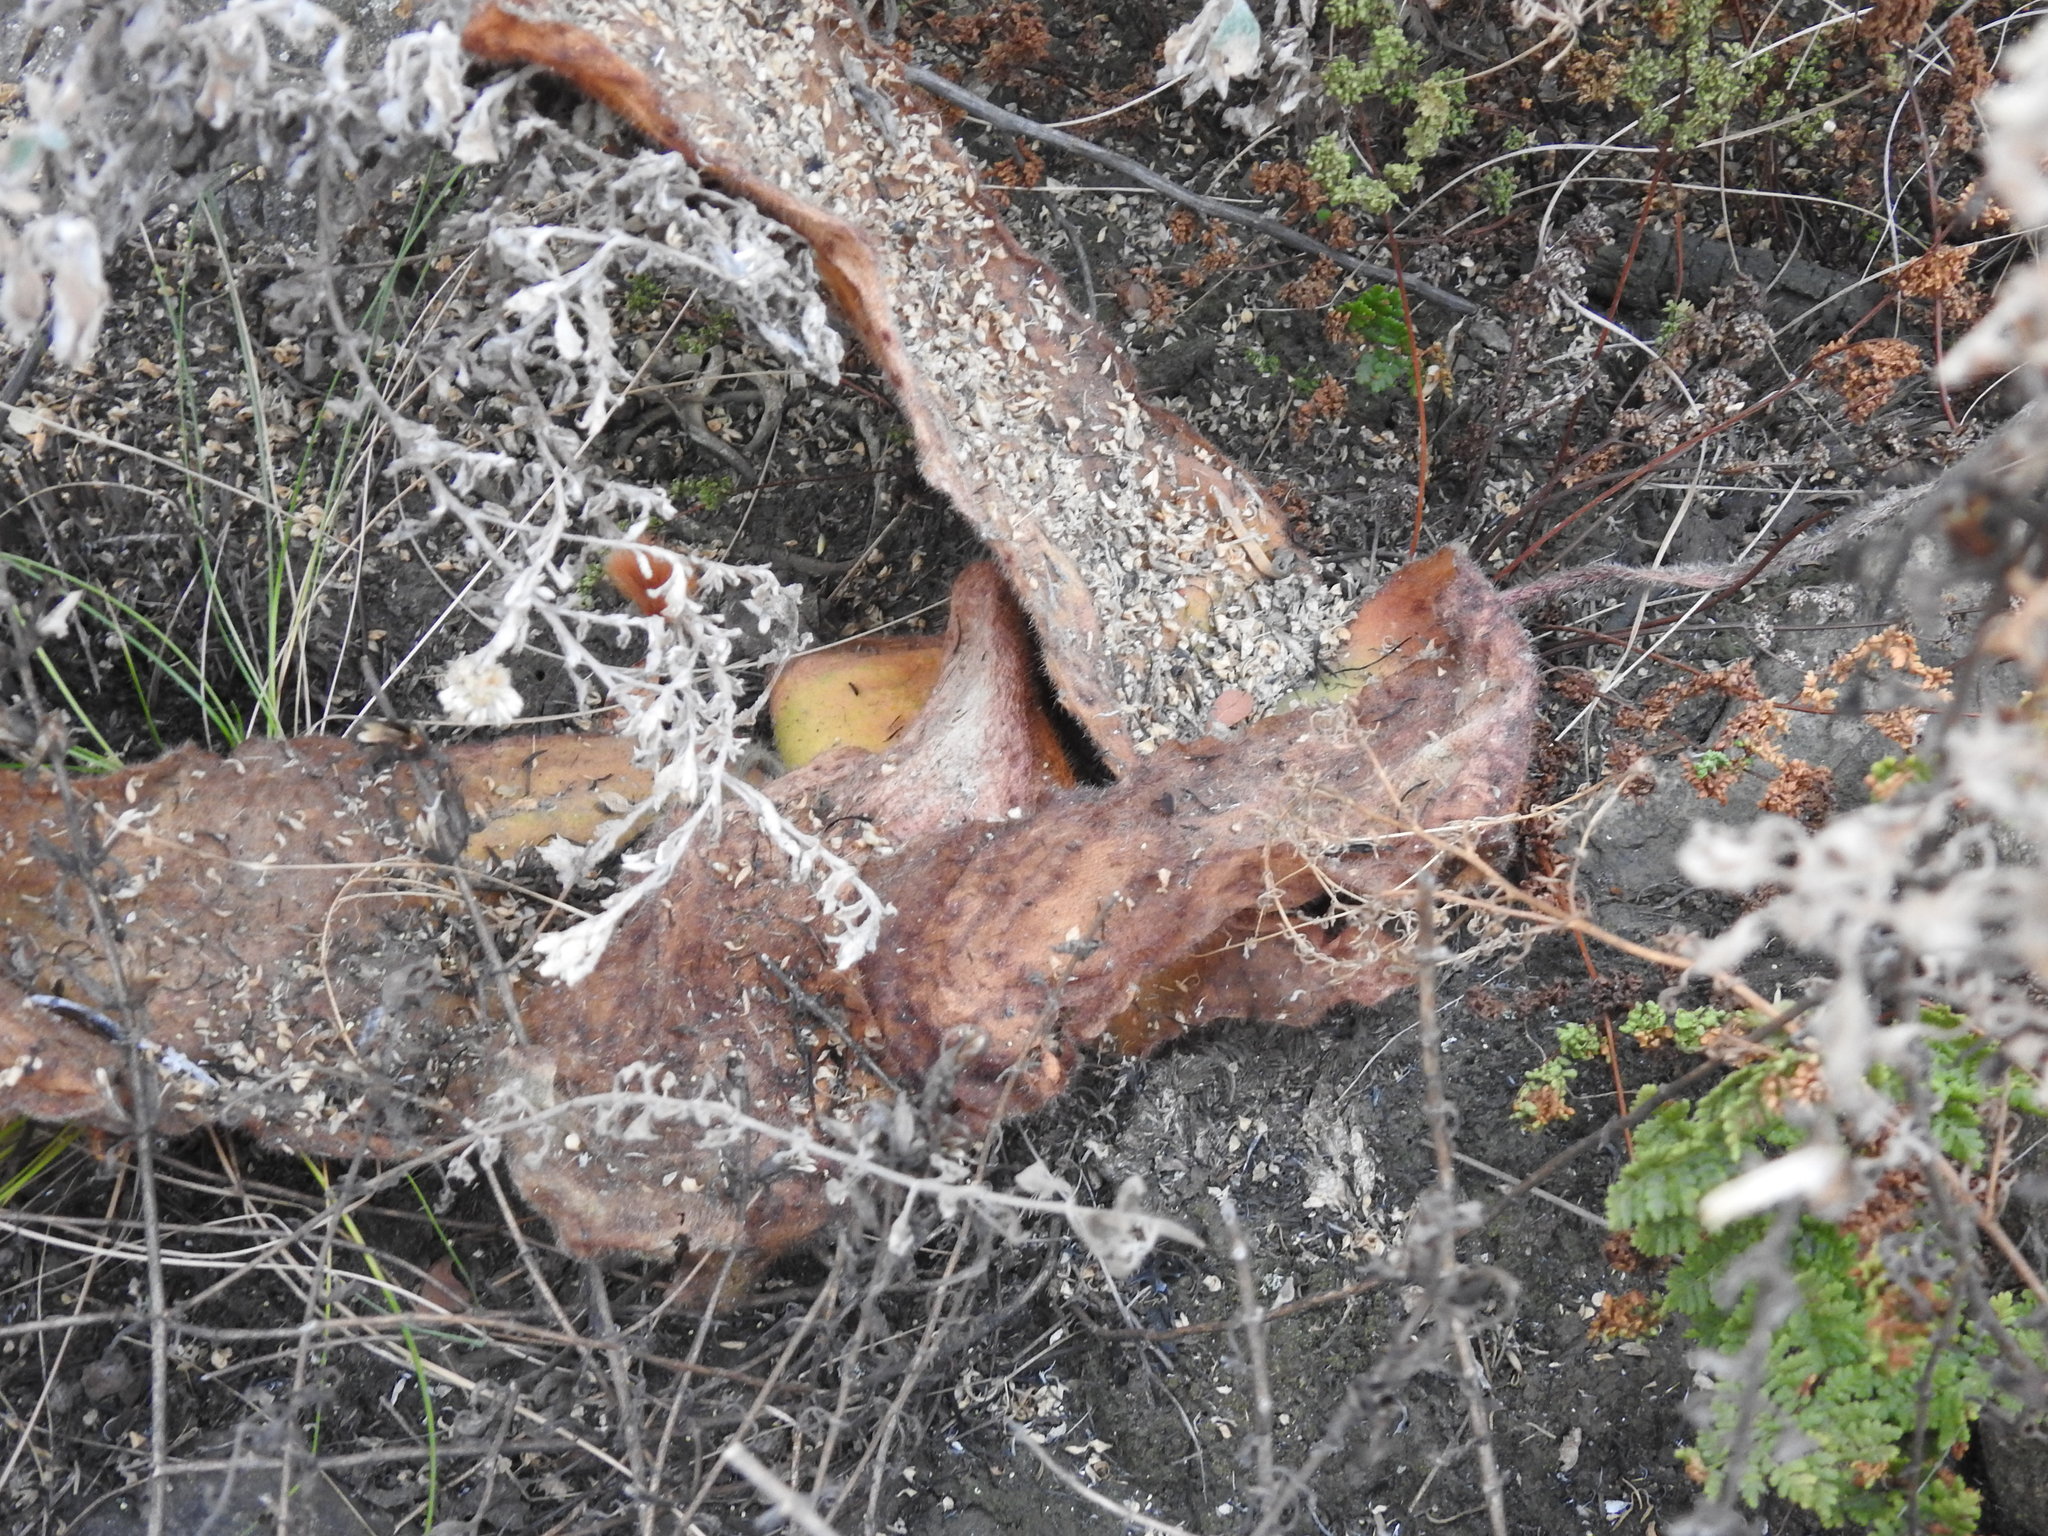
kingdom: Plantae
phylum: Tracheophyta
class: Liliopsida
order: Asparagales
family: Amaryllidaceae
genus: Haemanthus
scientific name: Haemanthus humilis
